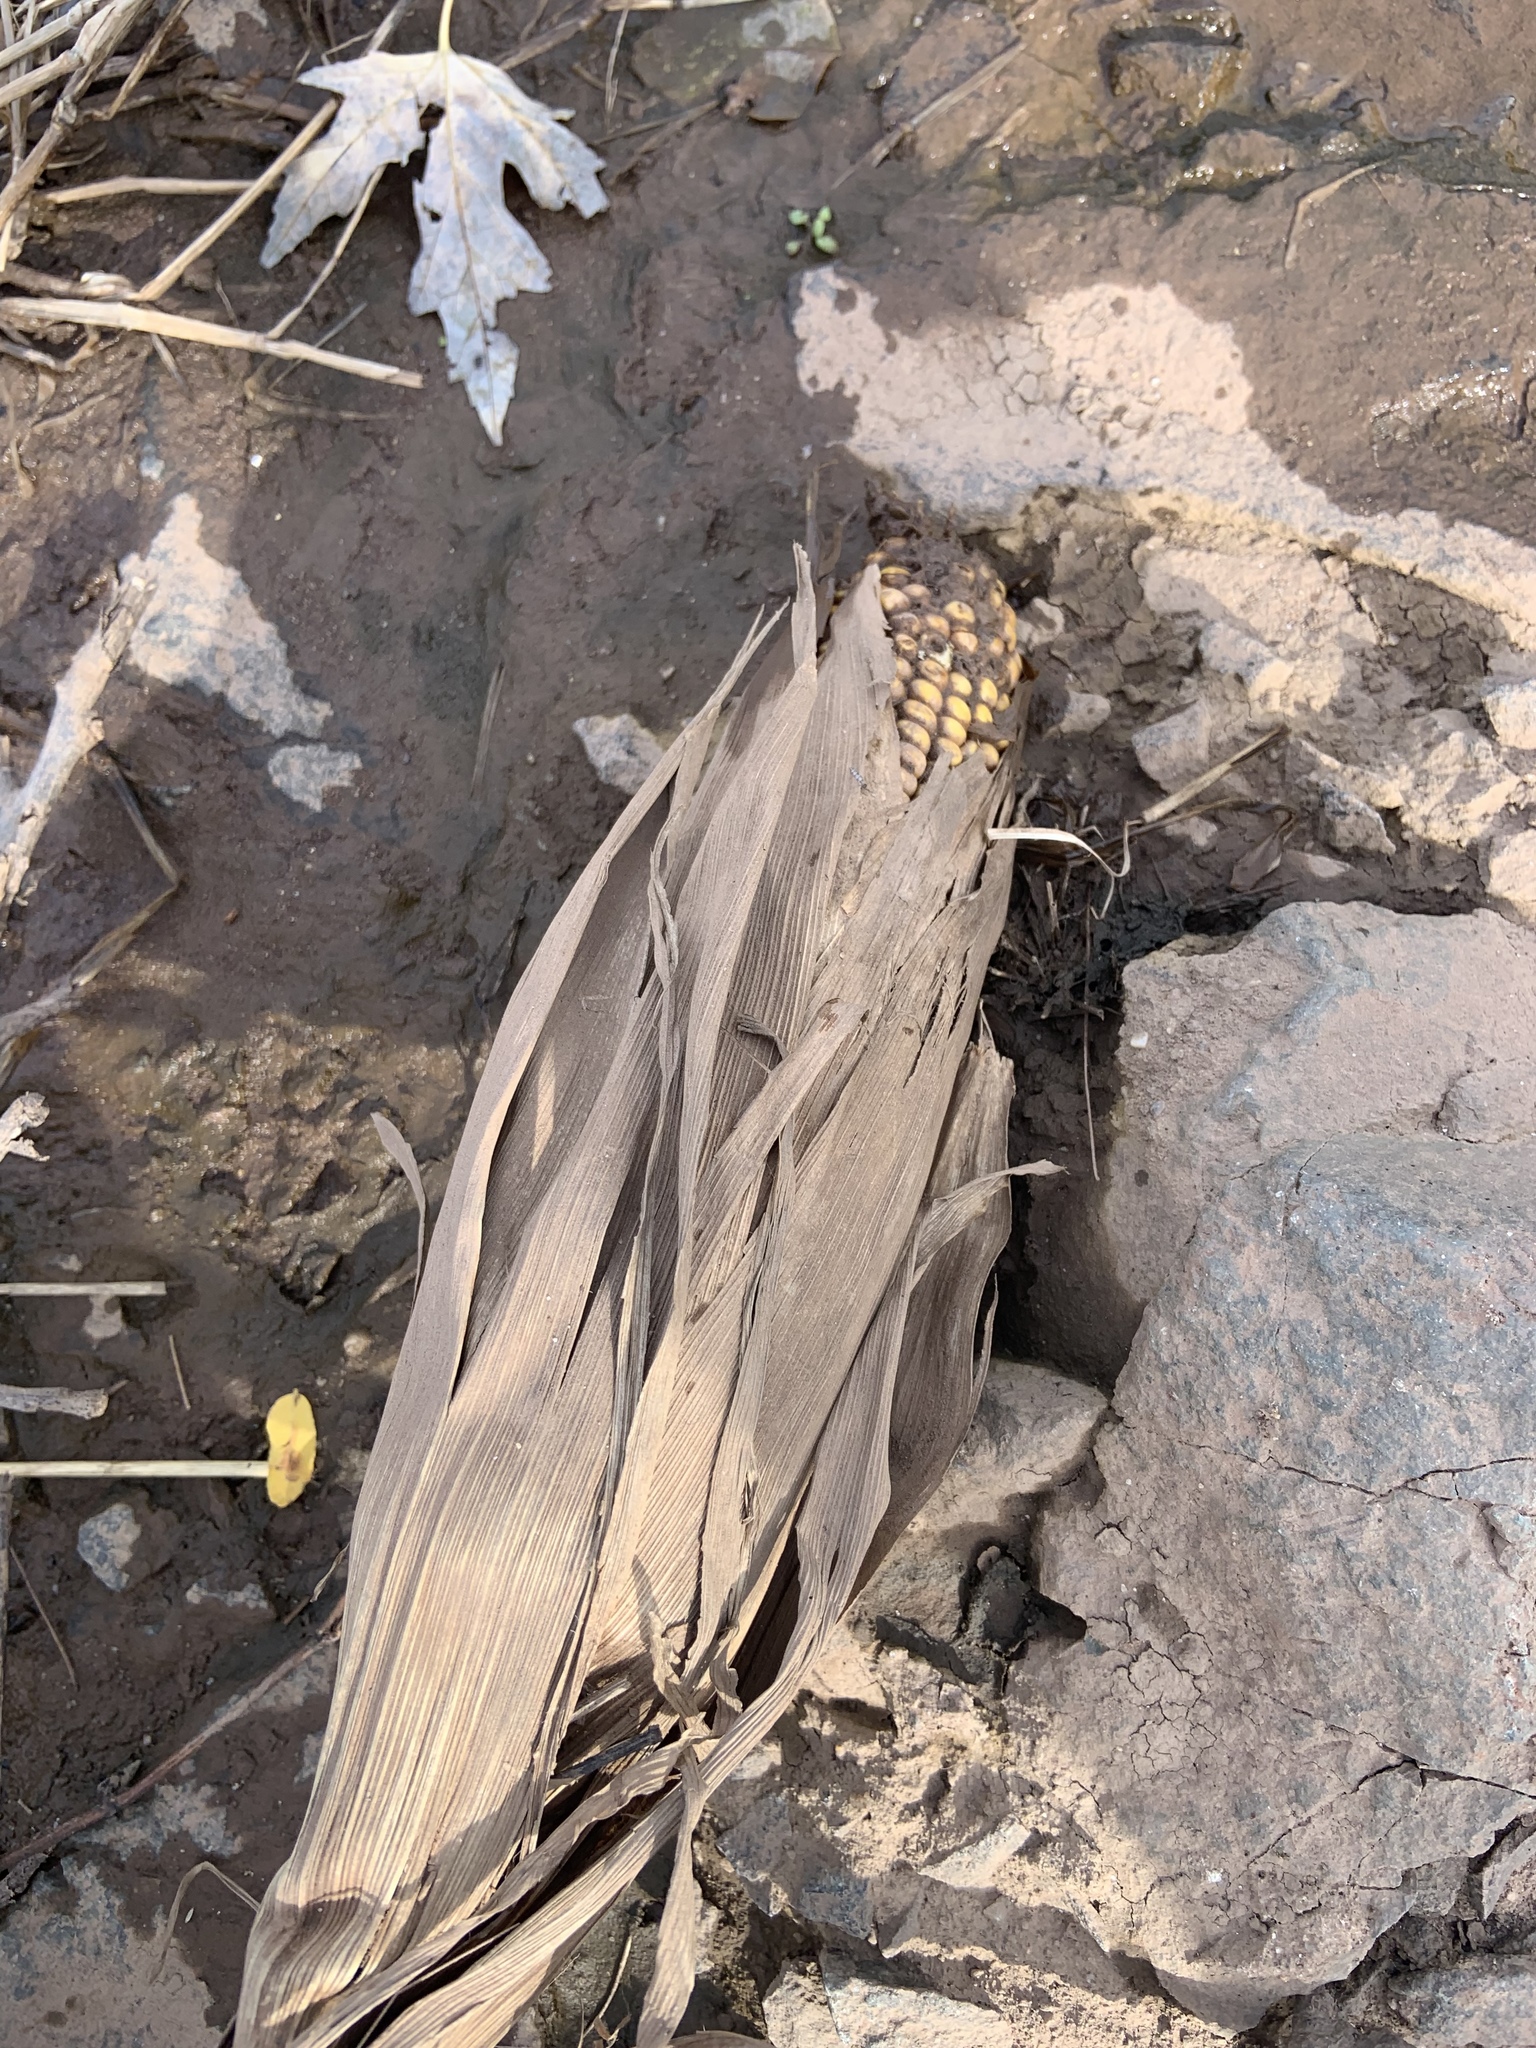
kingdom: Plantae
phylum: Tracheophyta
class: Liliopsida
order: Poales
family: Poaceae
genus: Zea
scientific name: Zea mays
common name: Maize
